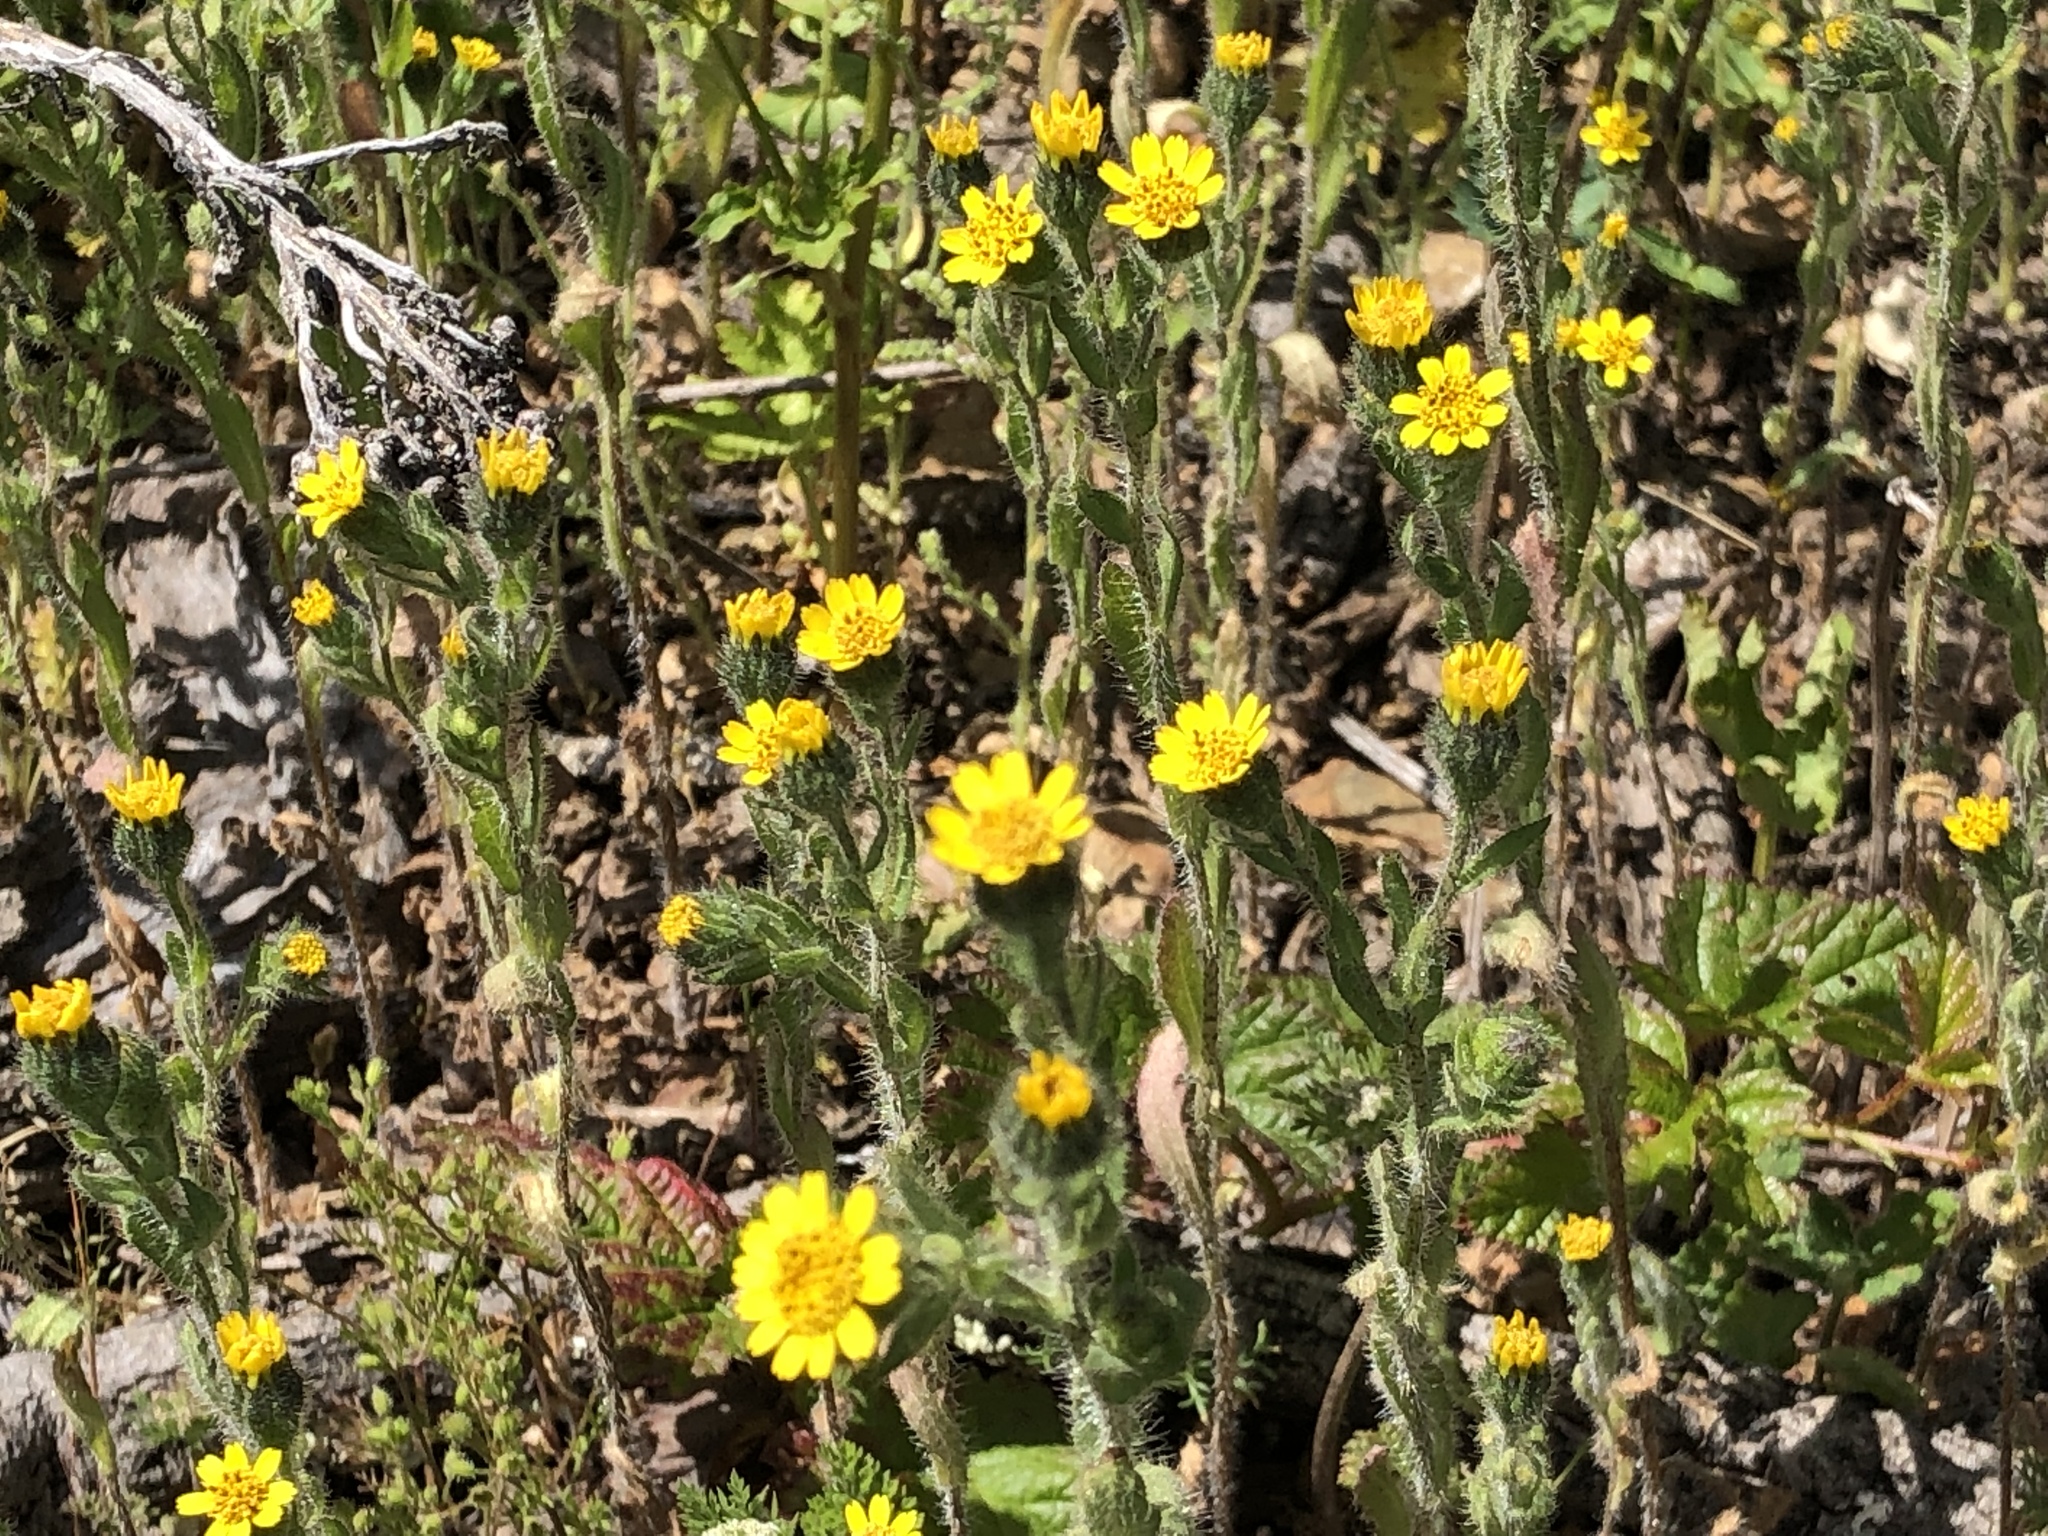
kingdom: Plantae
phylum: Tracheophyta
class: Magnoliopsida
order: Asterales
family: Asteraceae
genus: Layia
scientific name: Layia hieracioides
